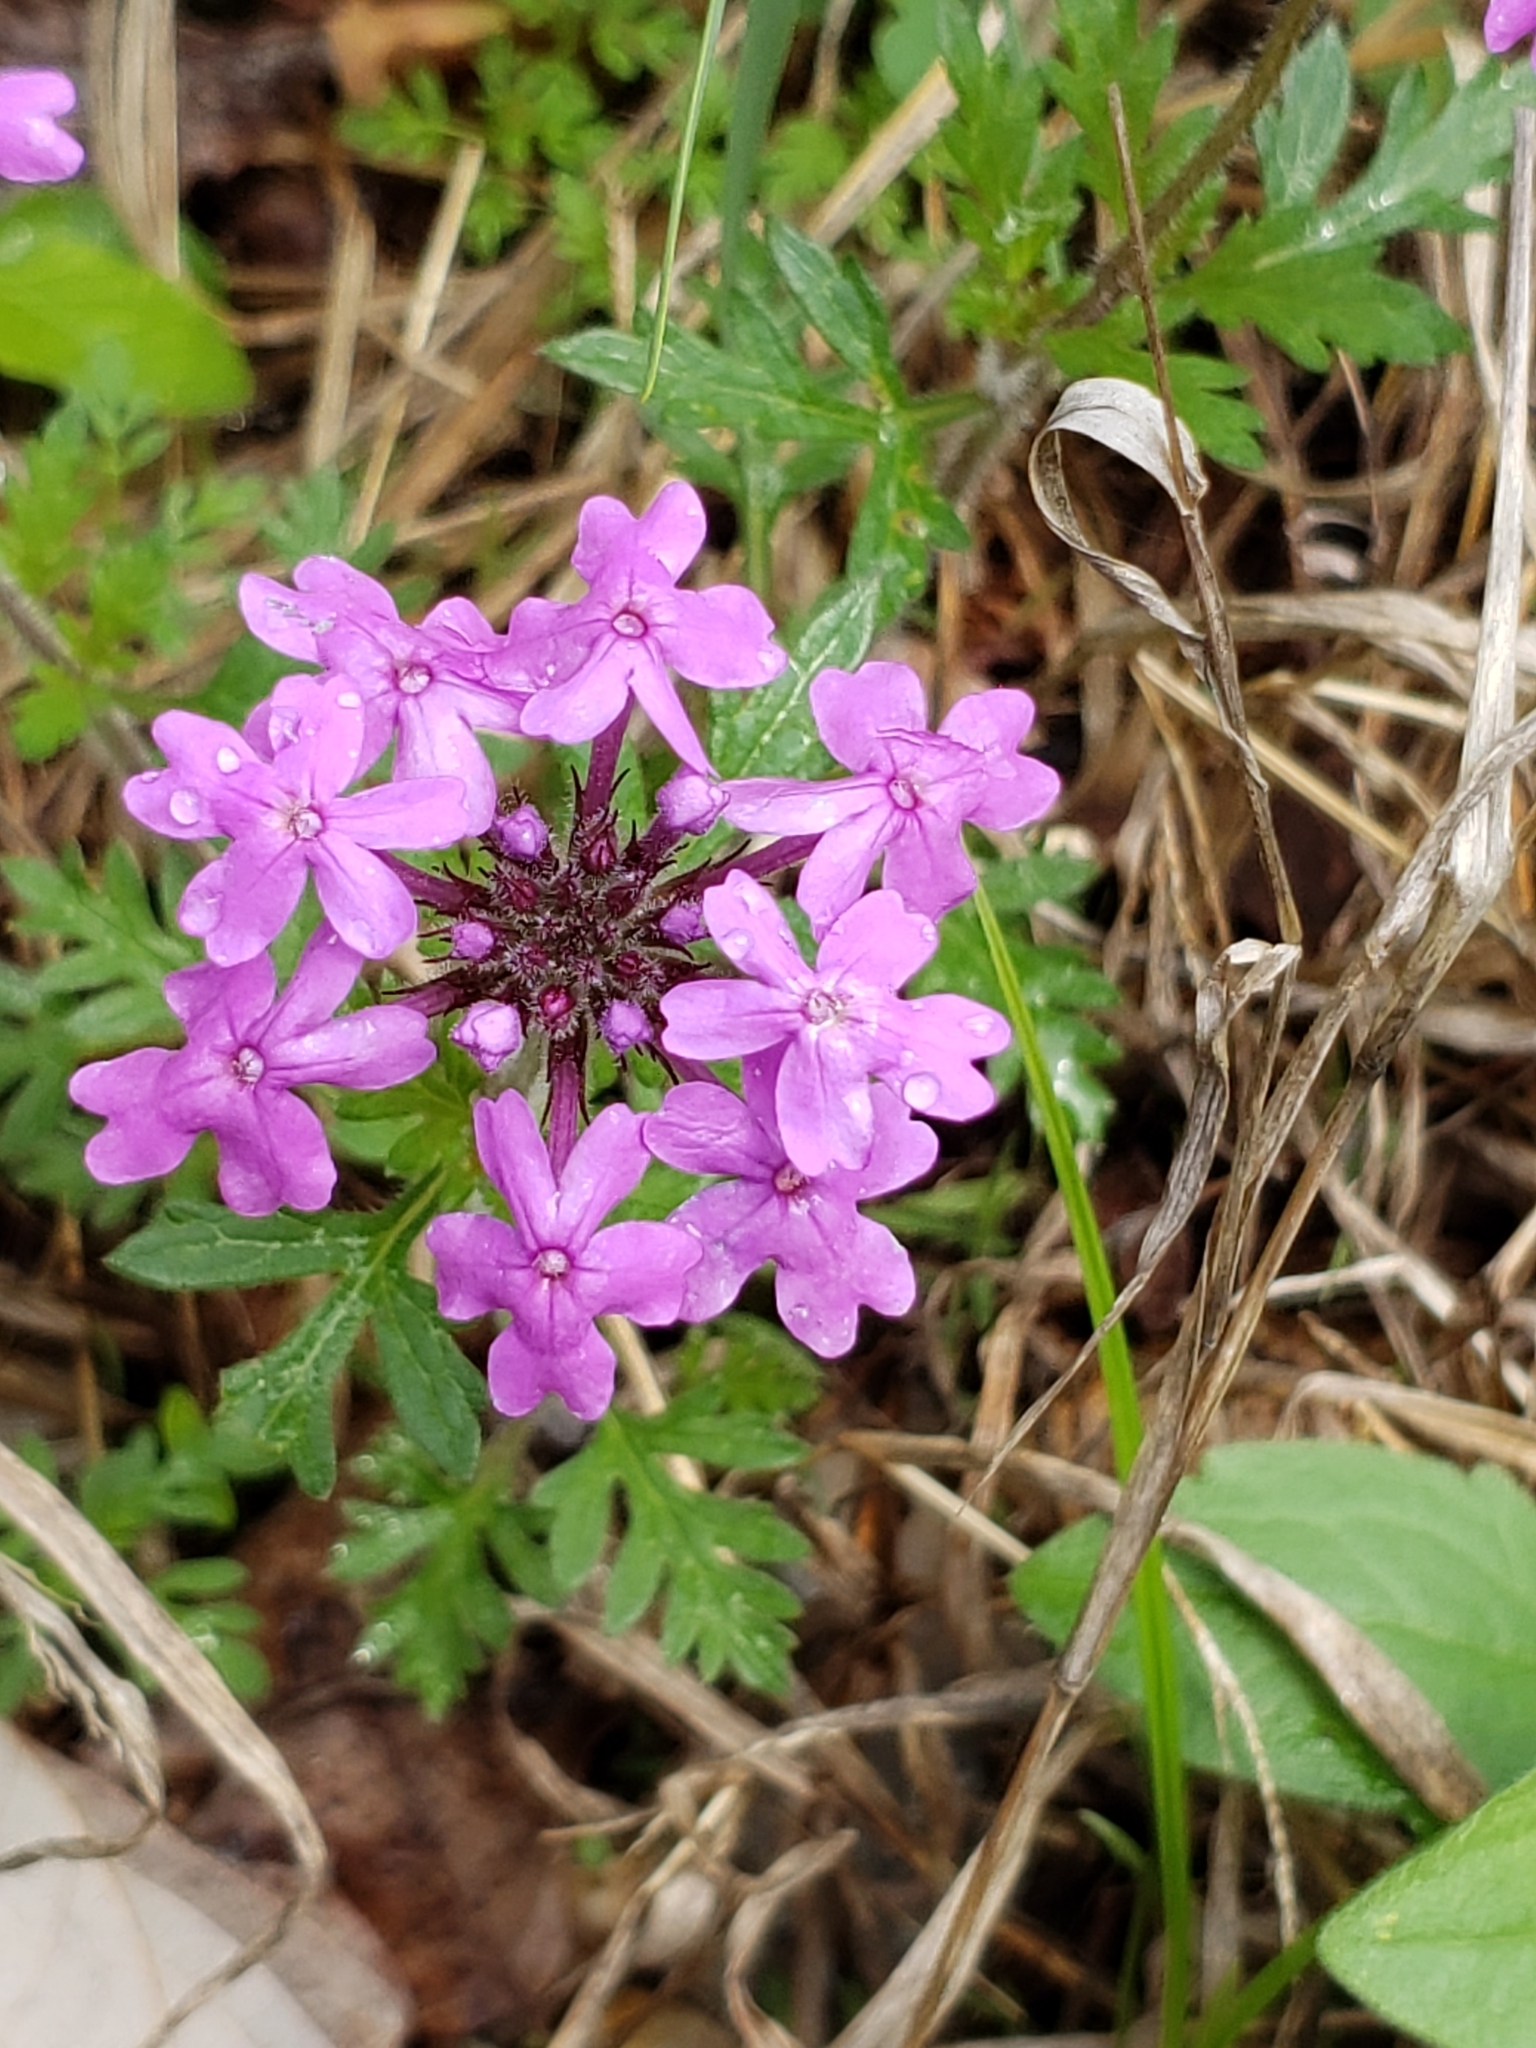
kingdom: Plantae
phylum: Tracheophyta
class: Magnoliopsida
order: Lamiales
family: Verbenaceae
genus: Verbena
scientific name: Verbena canadensis
